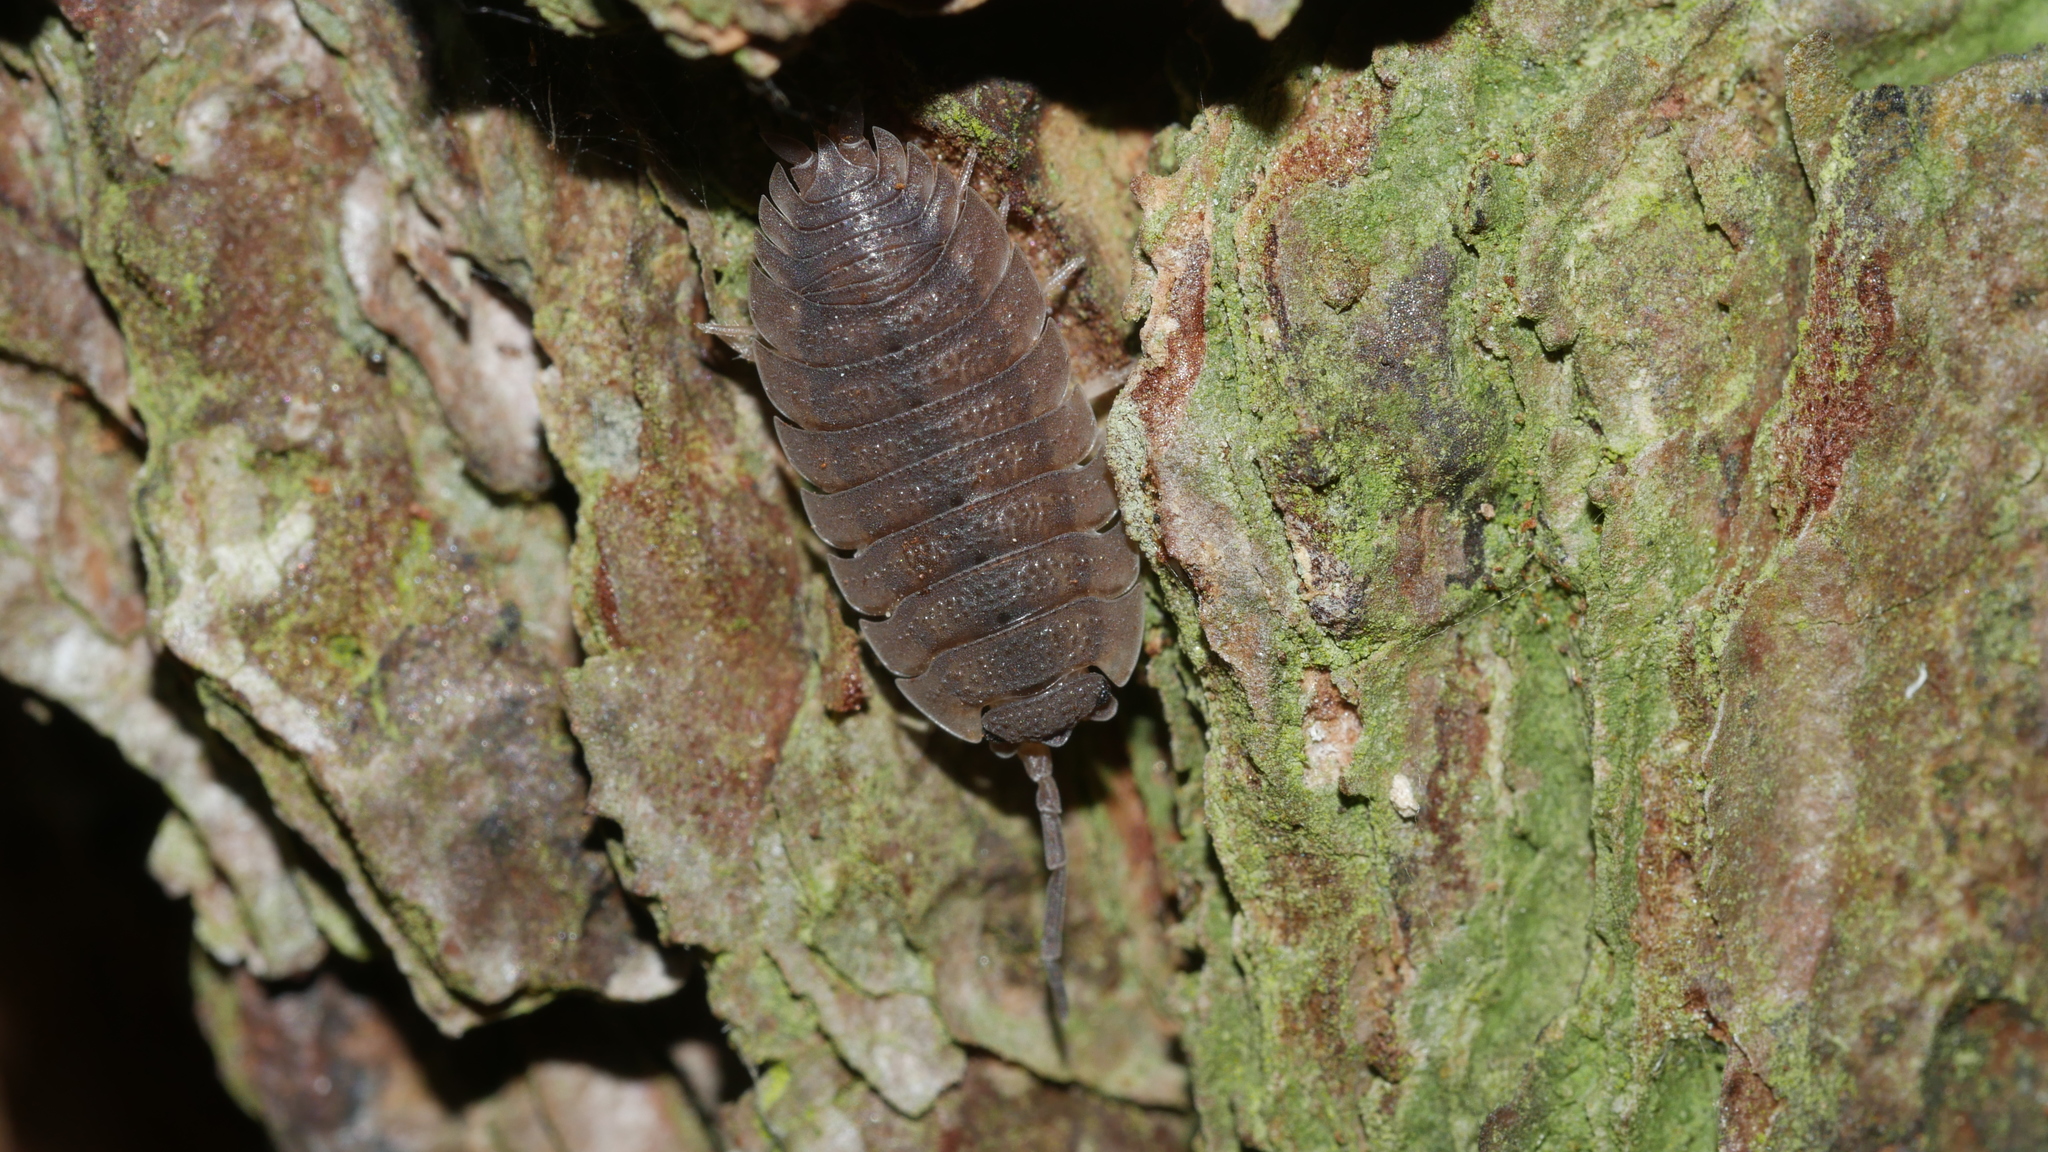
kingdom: Animalia
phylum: Arthropoda
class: Malacostraca
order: Isopoda
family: Porcellionidae
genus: Porcellio
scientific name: Porcellio scaber
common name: Common rough woodlouse
